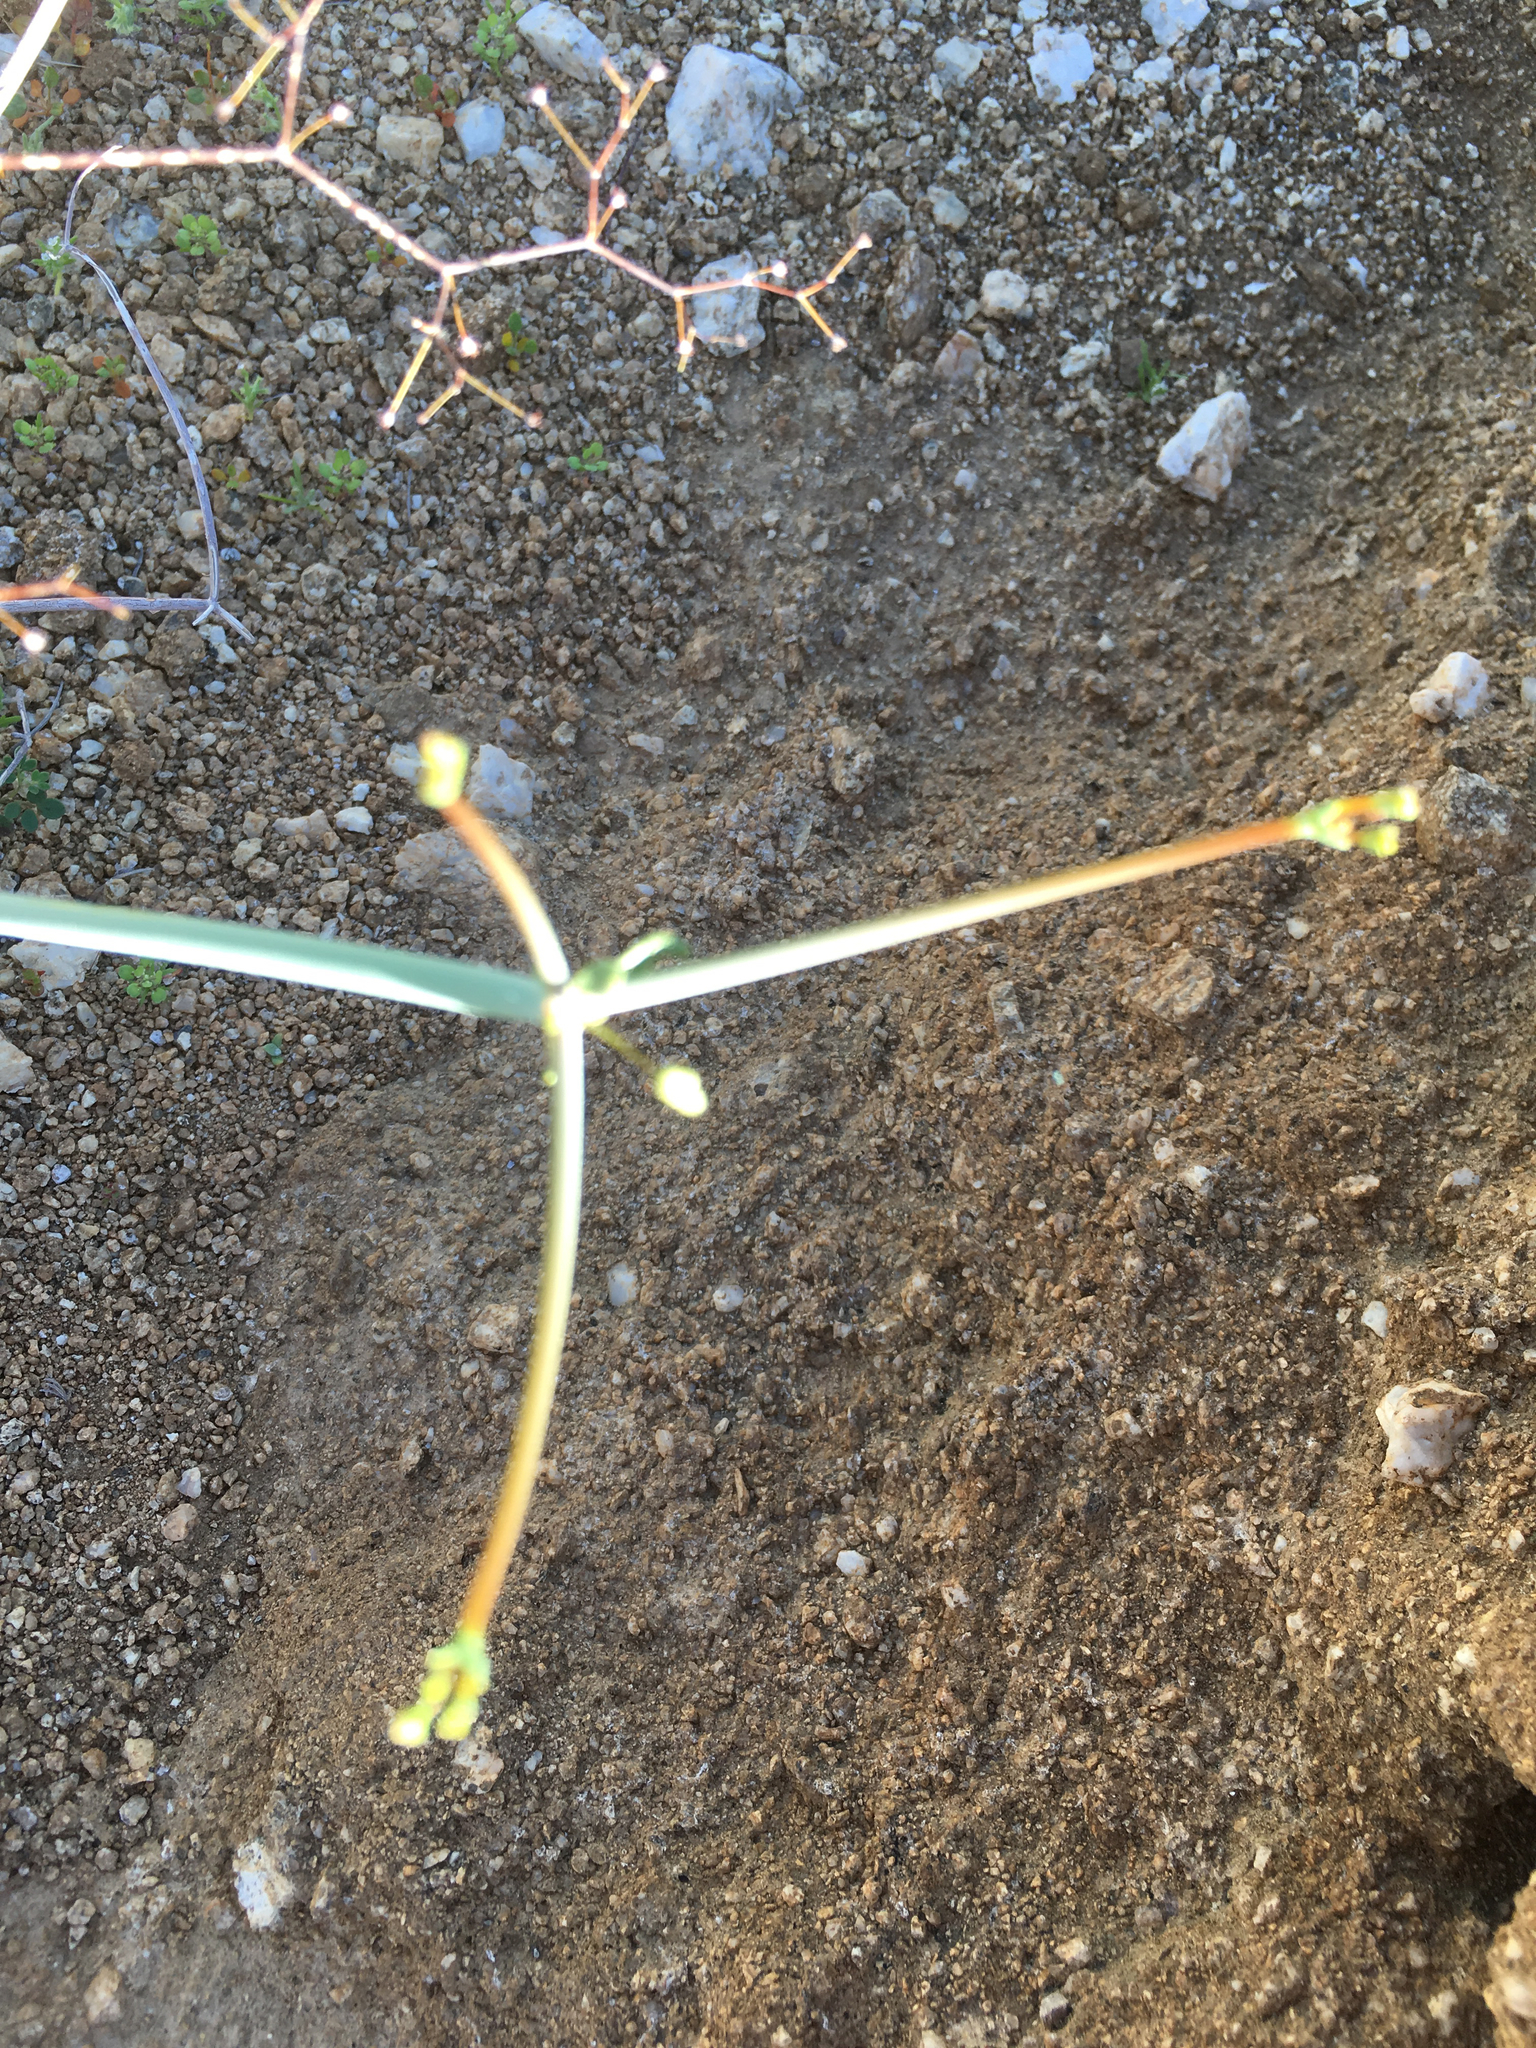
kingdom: Plantae
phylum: Tracheophyta
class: Magnoliopsida
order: Caryophyllales
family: Polygonaceae
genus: Eriogonum
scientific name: Eriogonum inflatum
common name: Desert trumpet
